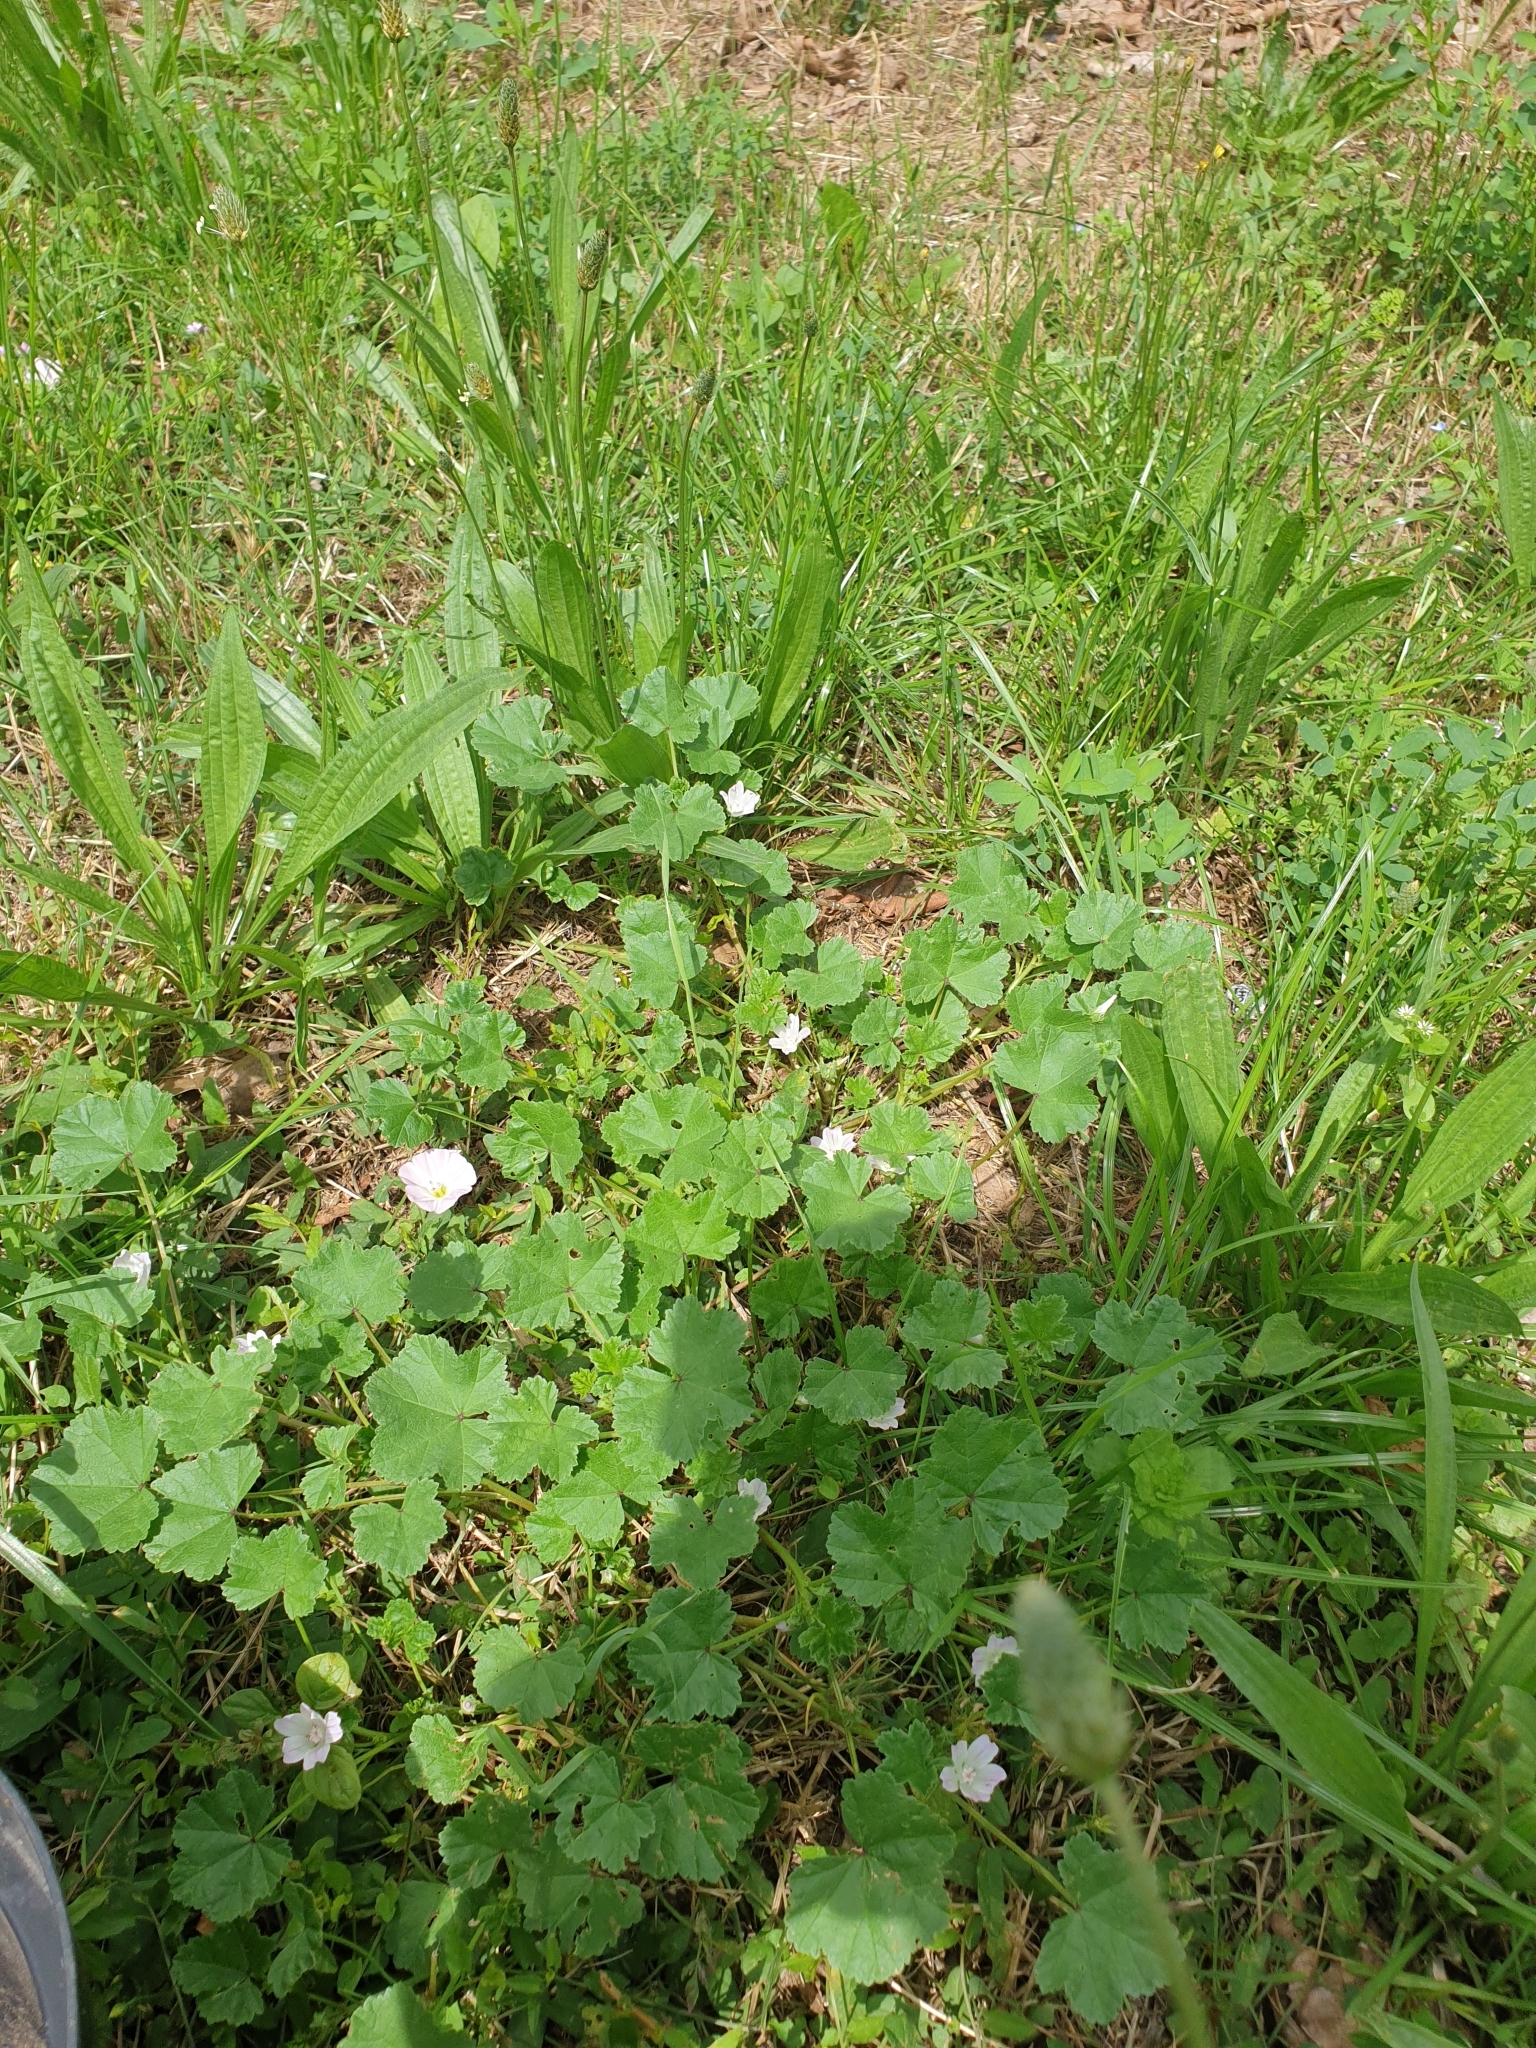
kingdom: Plantae
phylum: Tracheophyta
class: Magnoliopsida
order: Malvales
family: Malvaceae
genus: Malva
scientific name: Malva neglecta
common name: Common mallow
